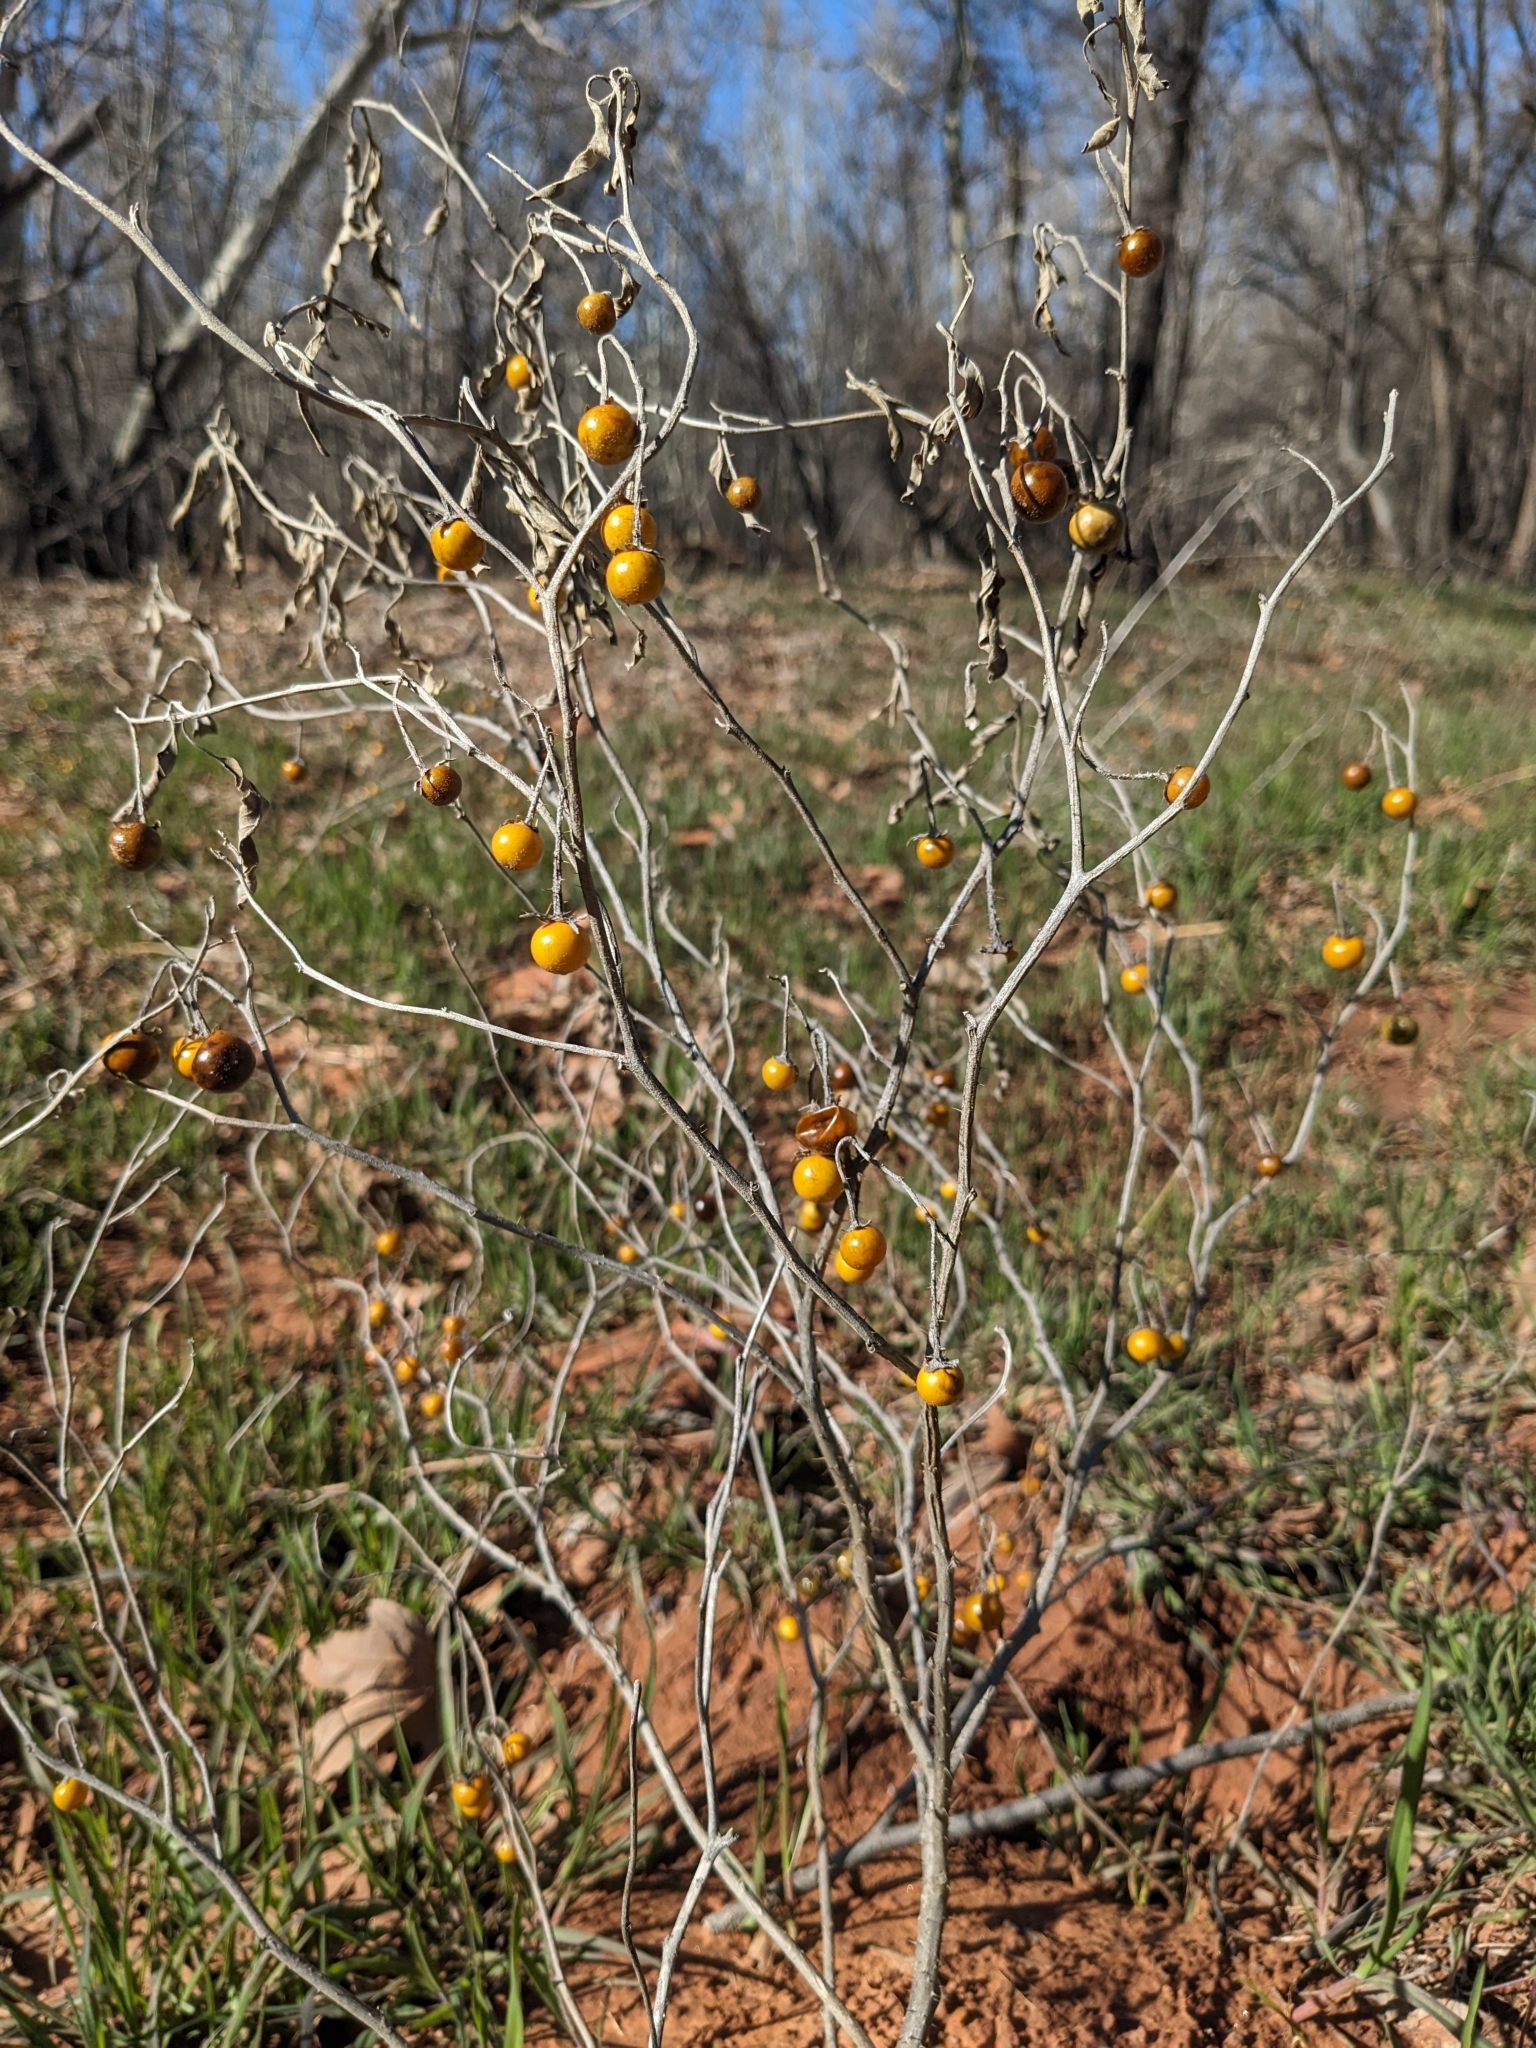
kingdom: Plantae
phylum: Tracheophyta
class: Magnoliopsida
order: Solanales
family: Solanaceae
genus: Solanum
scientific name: Solanum elaeagnifolium
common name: Silverleaf nightshade
